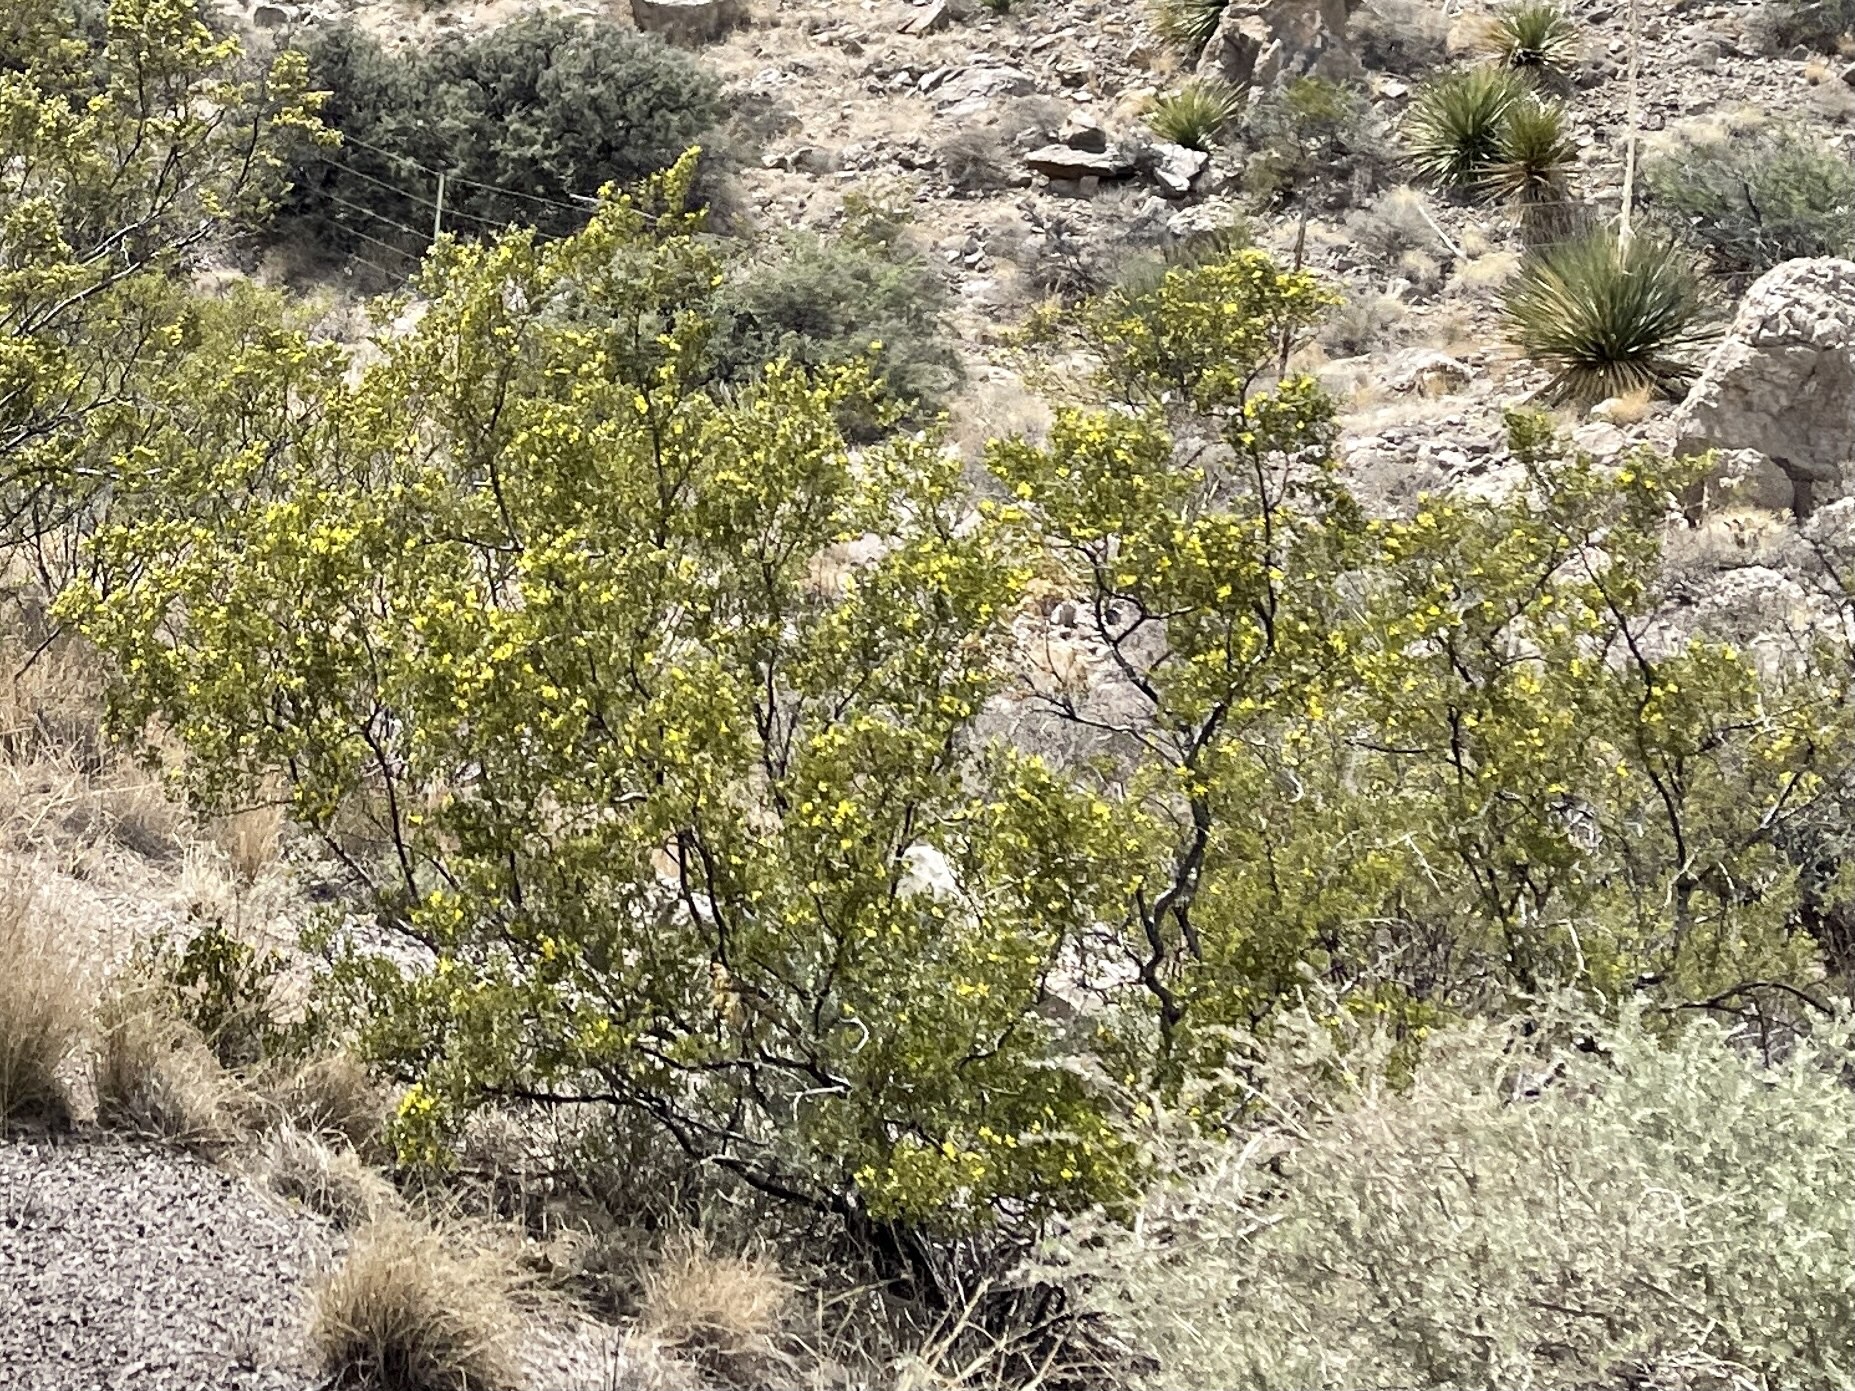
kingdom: Plantae
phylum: Tracheophyta
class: Magnoliopsida
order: Zygophyllales
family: Zygophyllaceae
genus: Larrea
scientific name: Larrea tridentata
